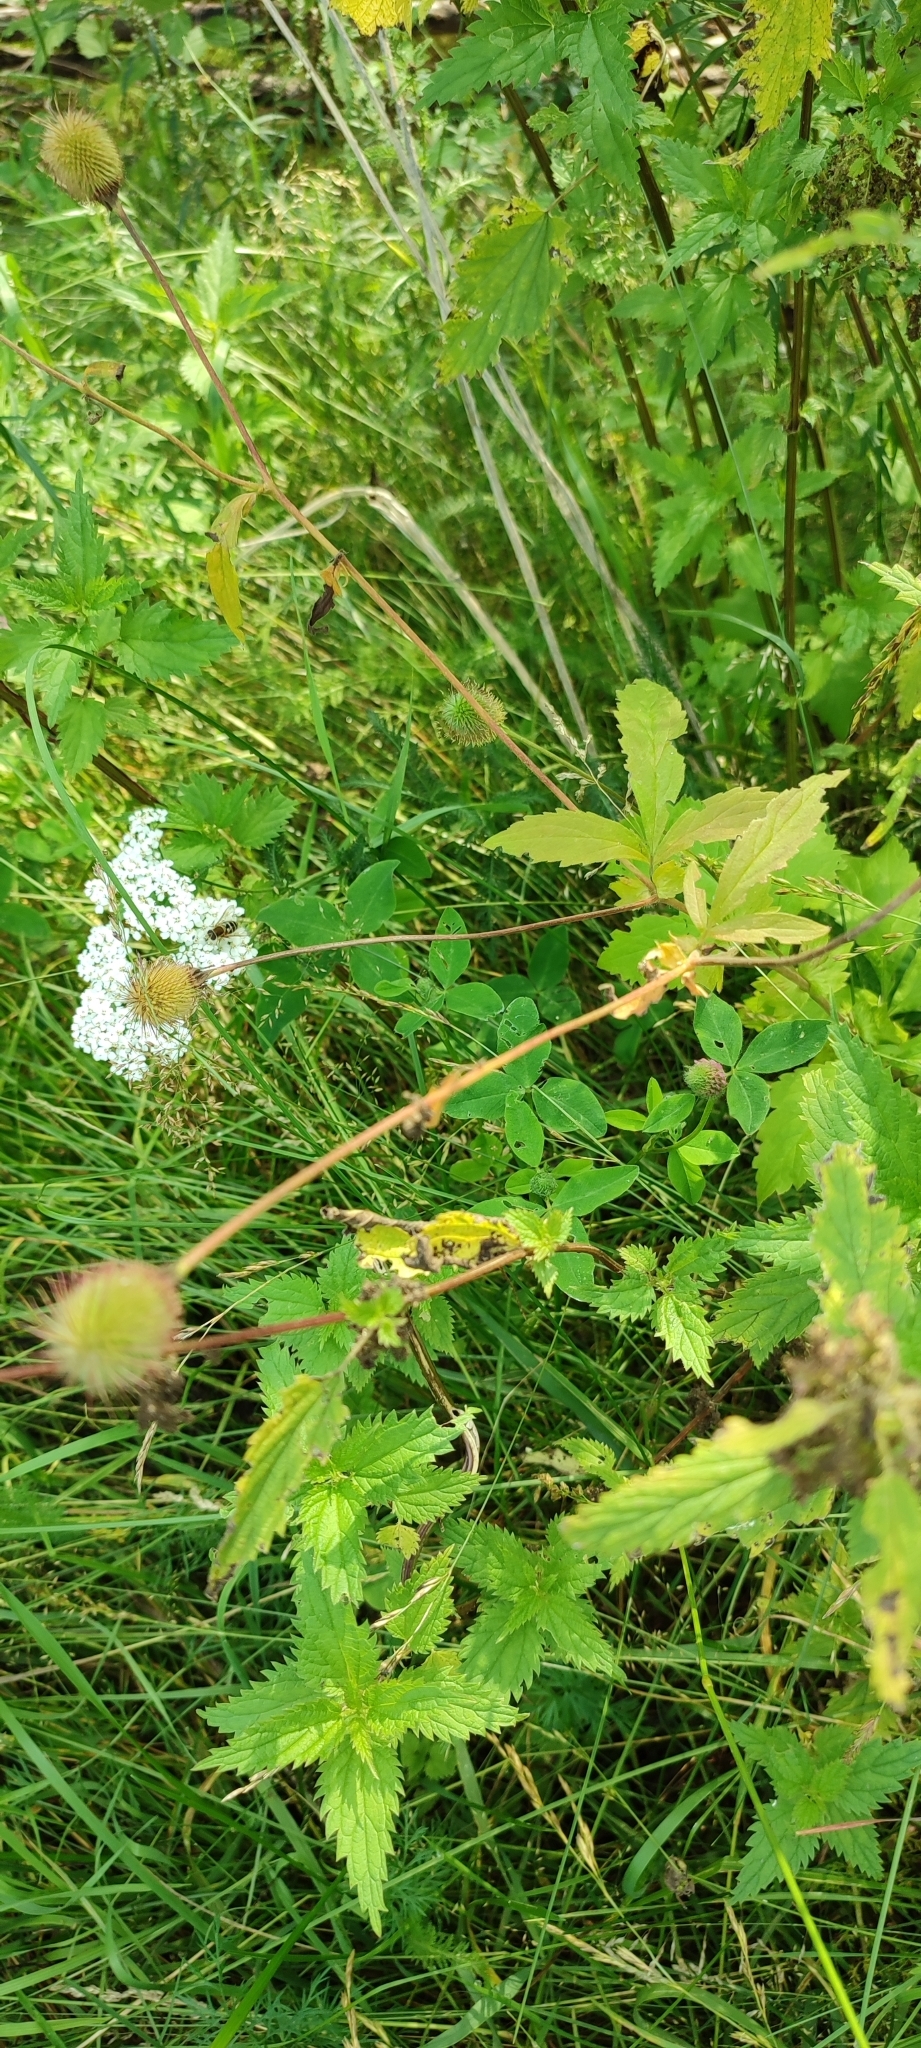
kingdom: Plantae
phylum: Tracheophyta
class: Magnoliopsida
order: Rosales
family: Rosaceae
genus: Geum
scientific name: Geum aleppicum
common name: Yellow avens
